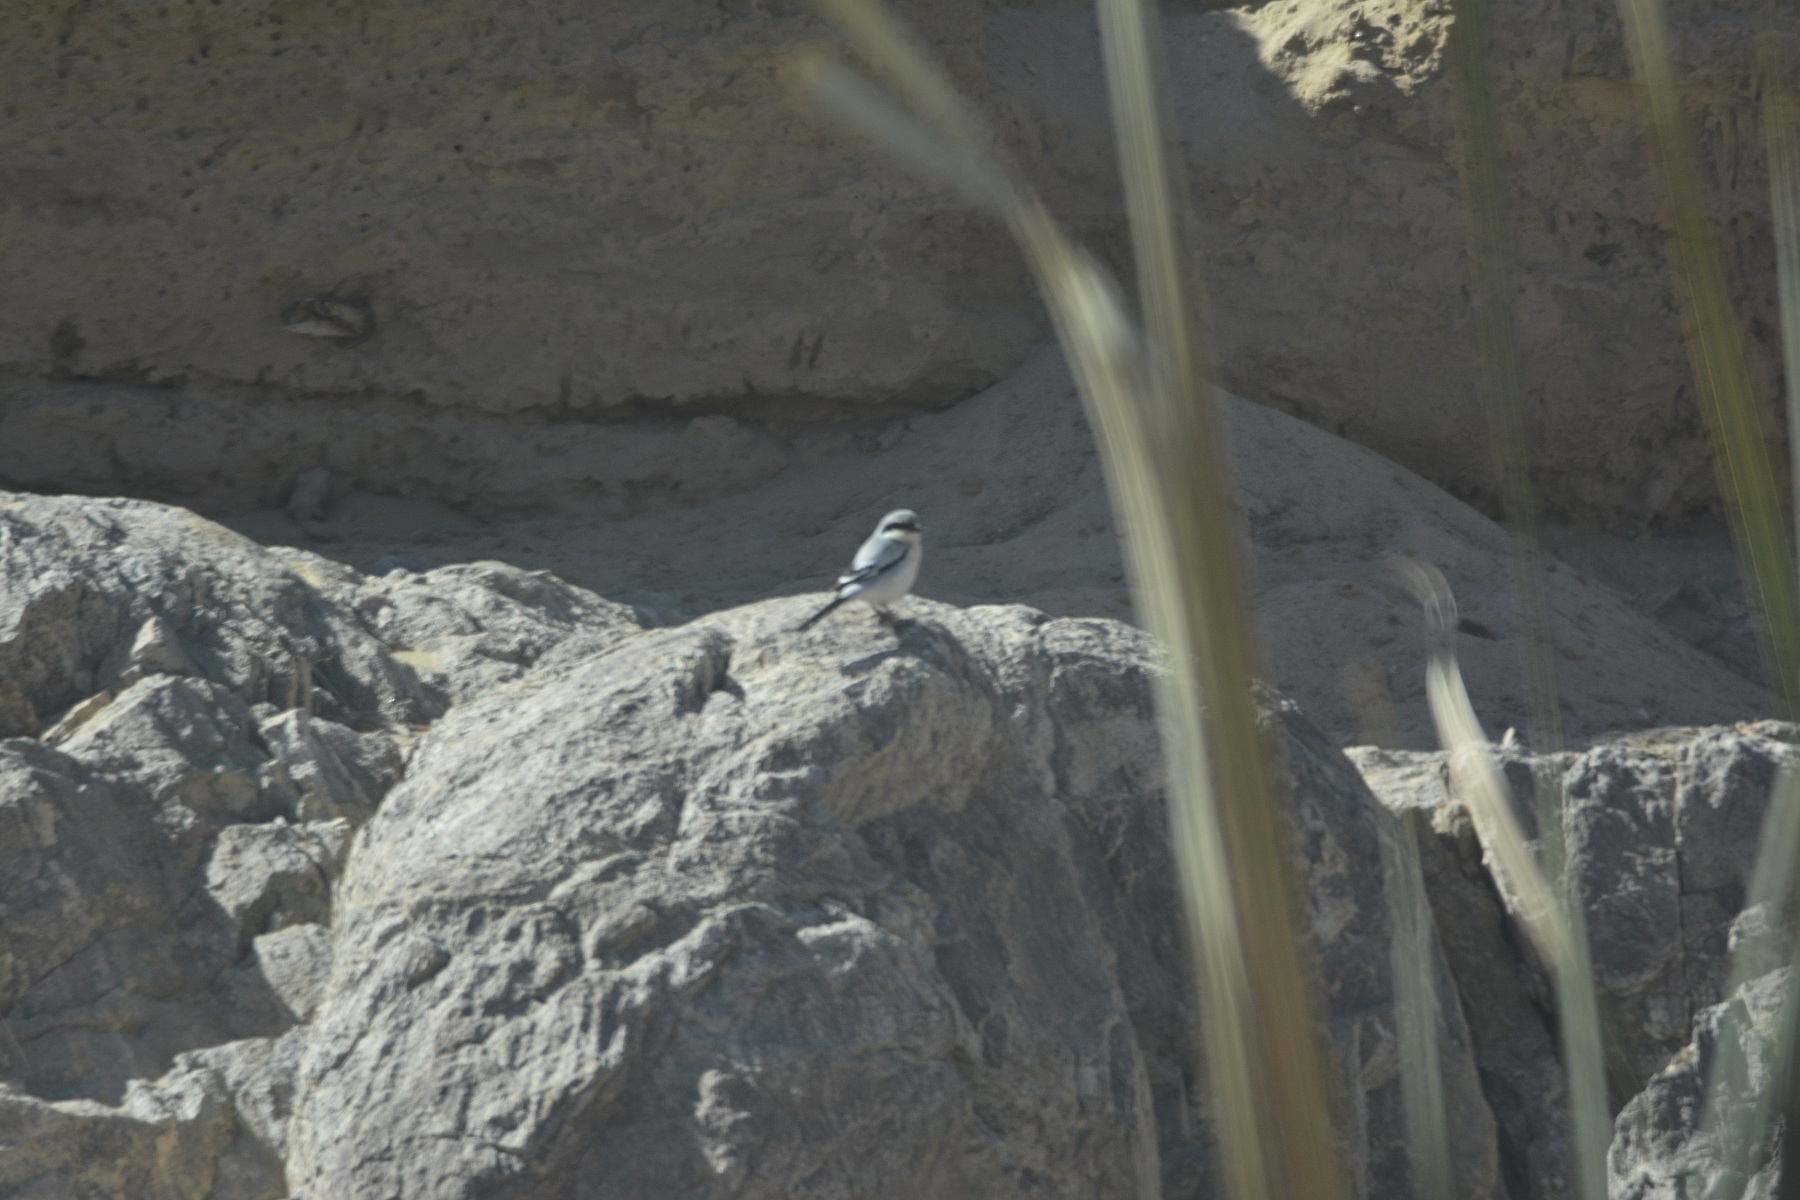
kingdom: Animalia
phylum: Chordata
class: Aves
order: Passeriformes
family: Laniidae
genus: Lanius
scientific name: Lanius excubitor
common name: Great grey shrike
